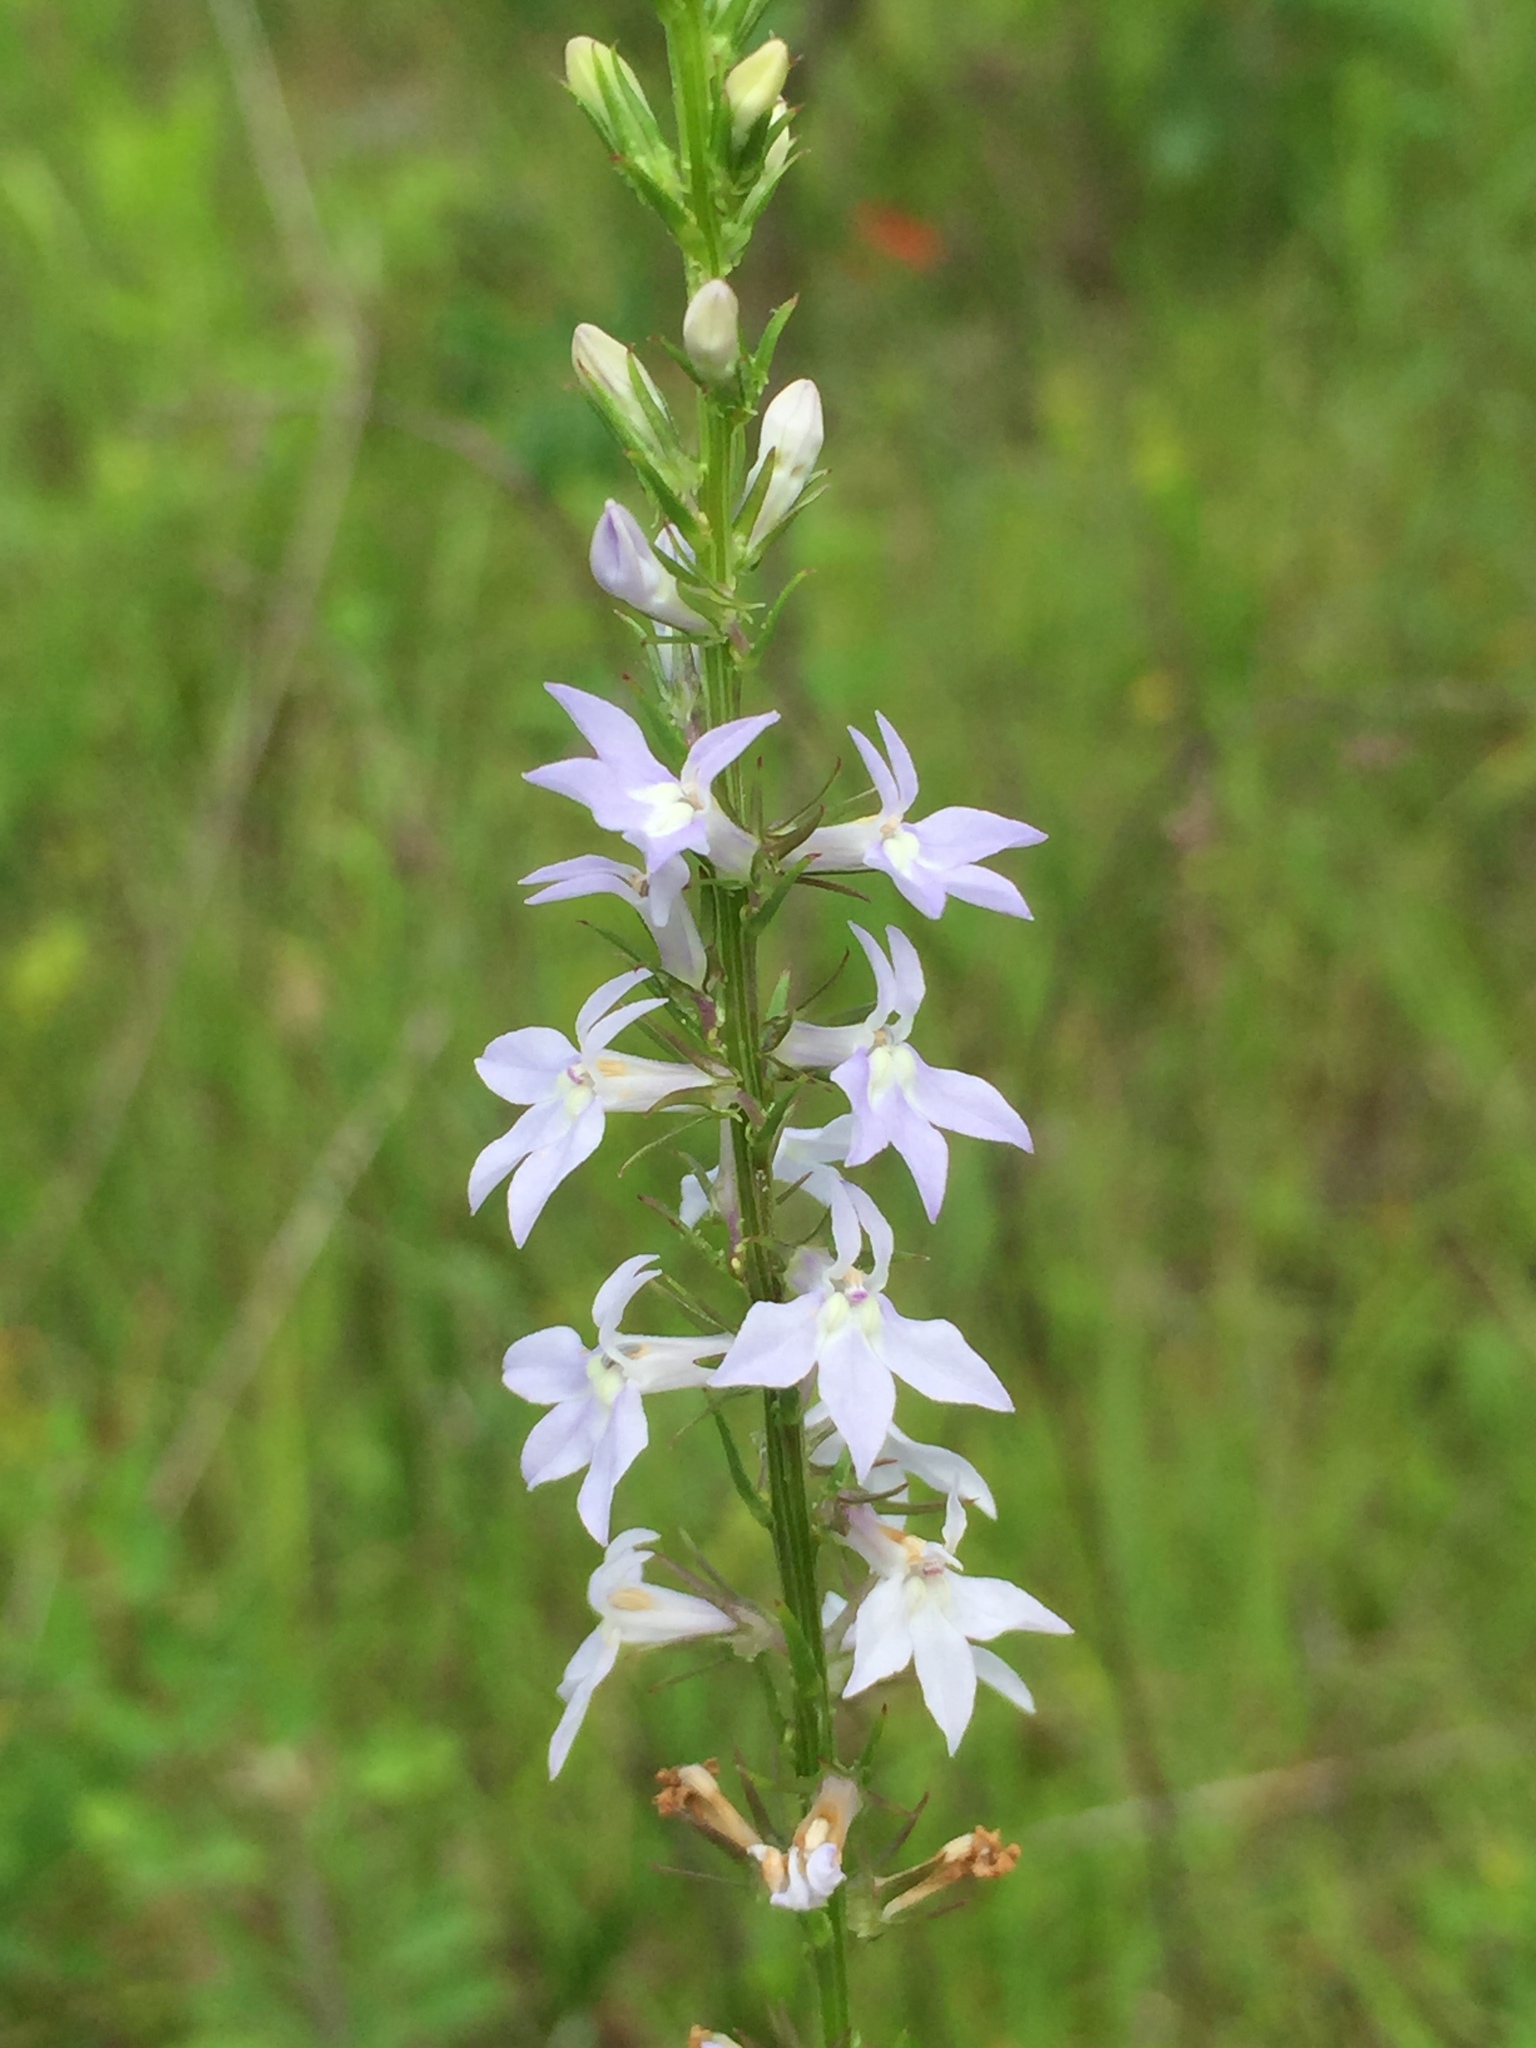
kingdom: Plantae
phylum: Tracheophyta
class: Magnoliopsida
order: Asterales
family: Campanulaceae
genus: Lobelia
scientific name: Lobelia spicata
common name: Pale-spike lobelia
